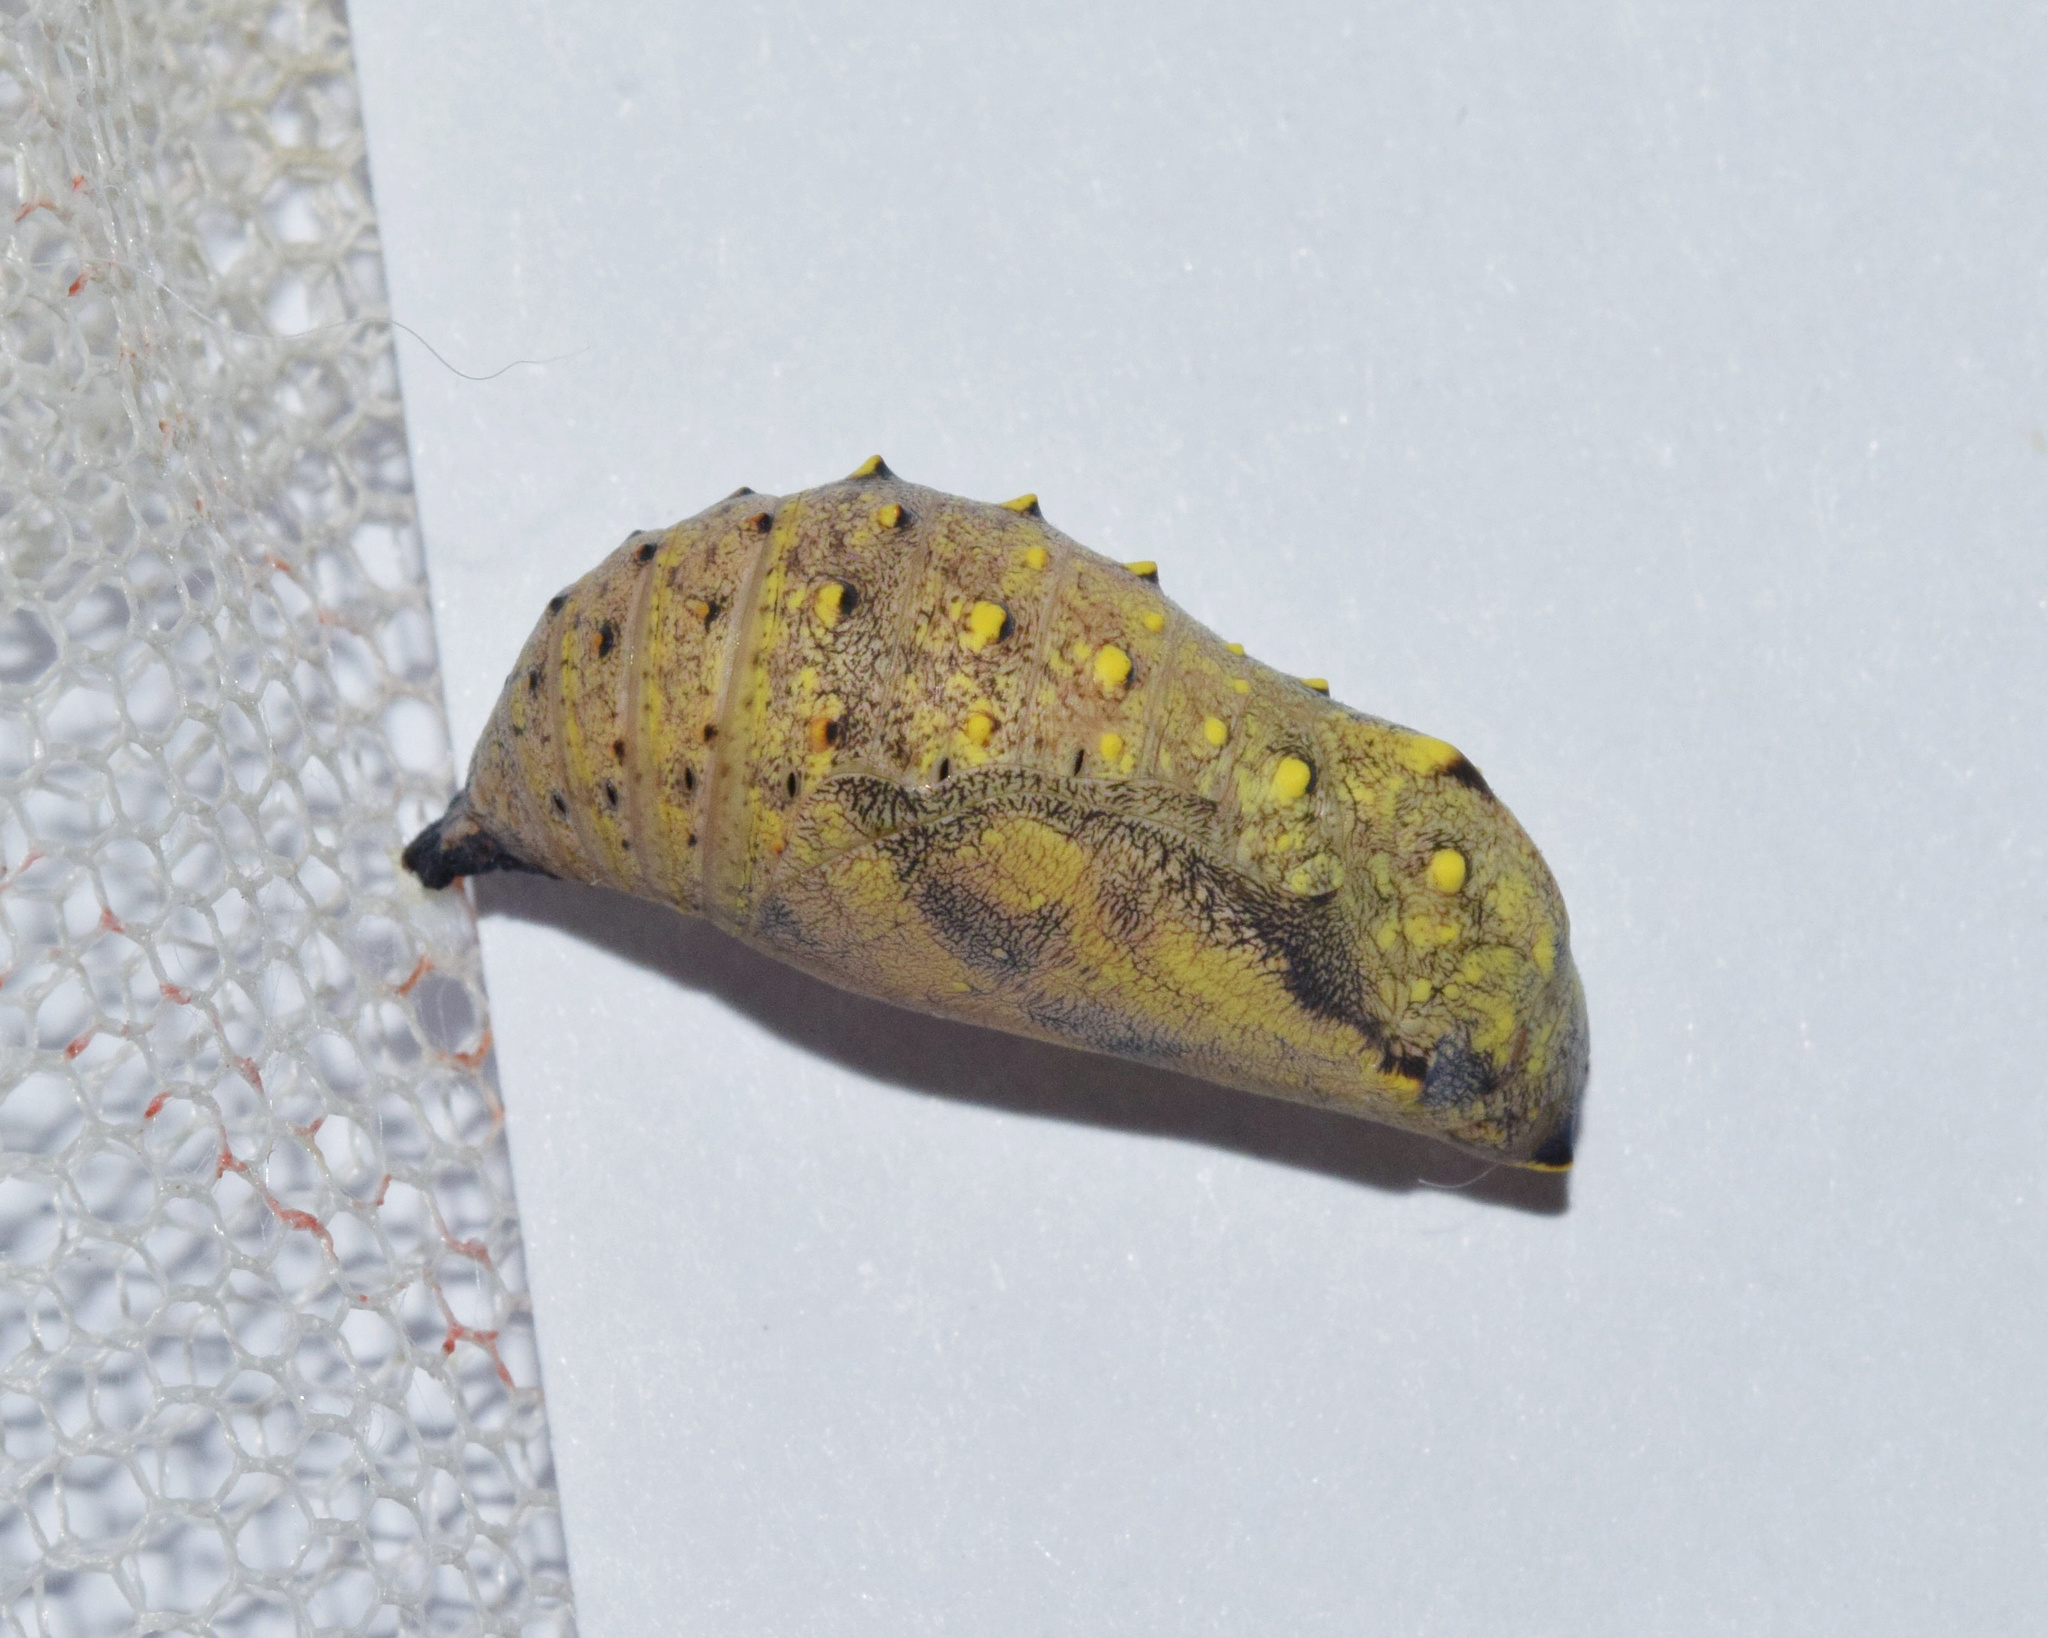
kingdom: Animalia
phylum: Arthropoda
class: Insecta
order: Lepidoptera
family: Nymphalidae
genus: Junonia
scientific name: Junonia natalica
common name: Brown pansy
